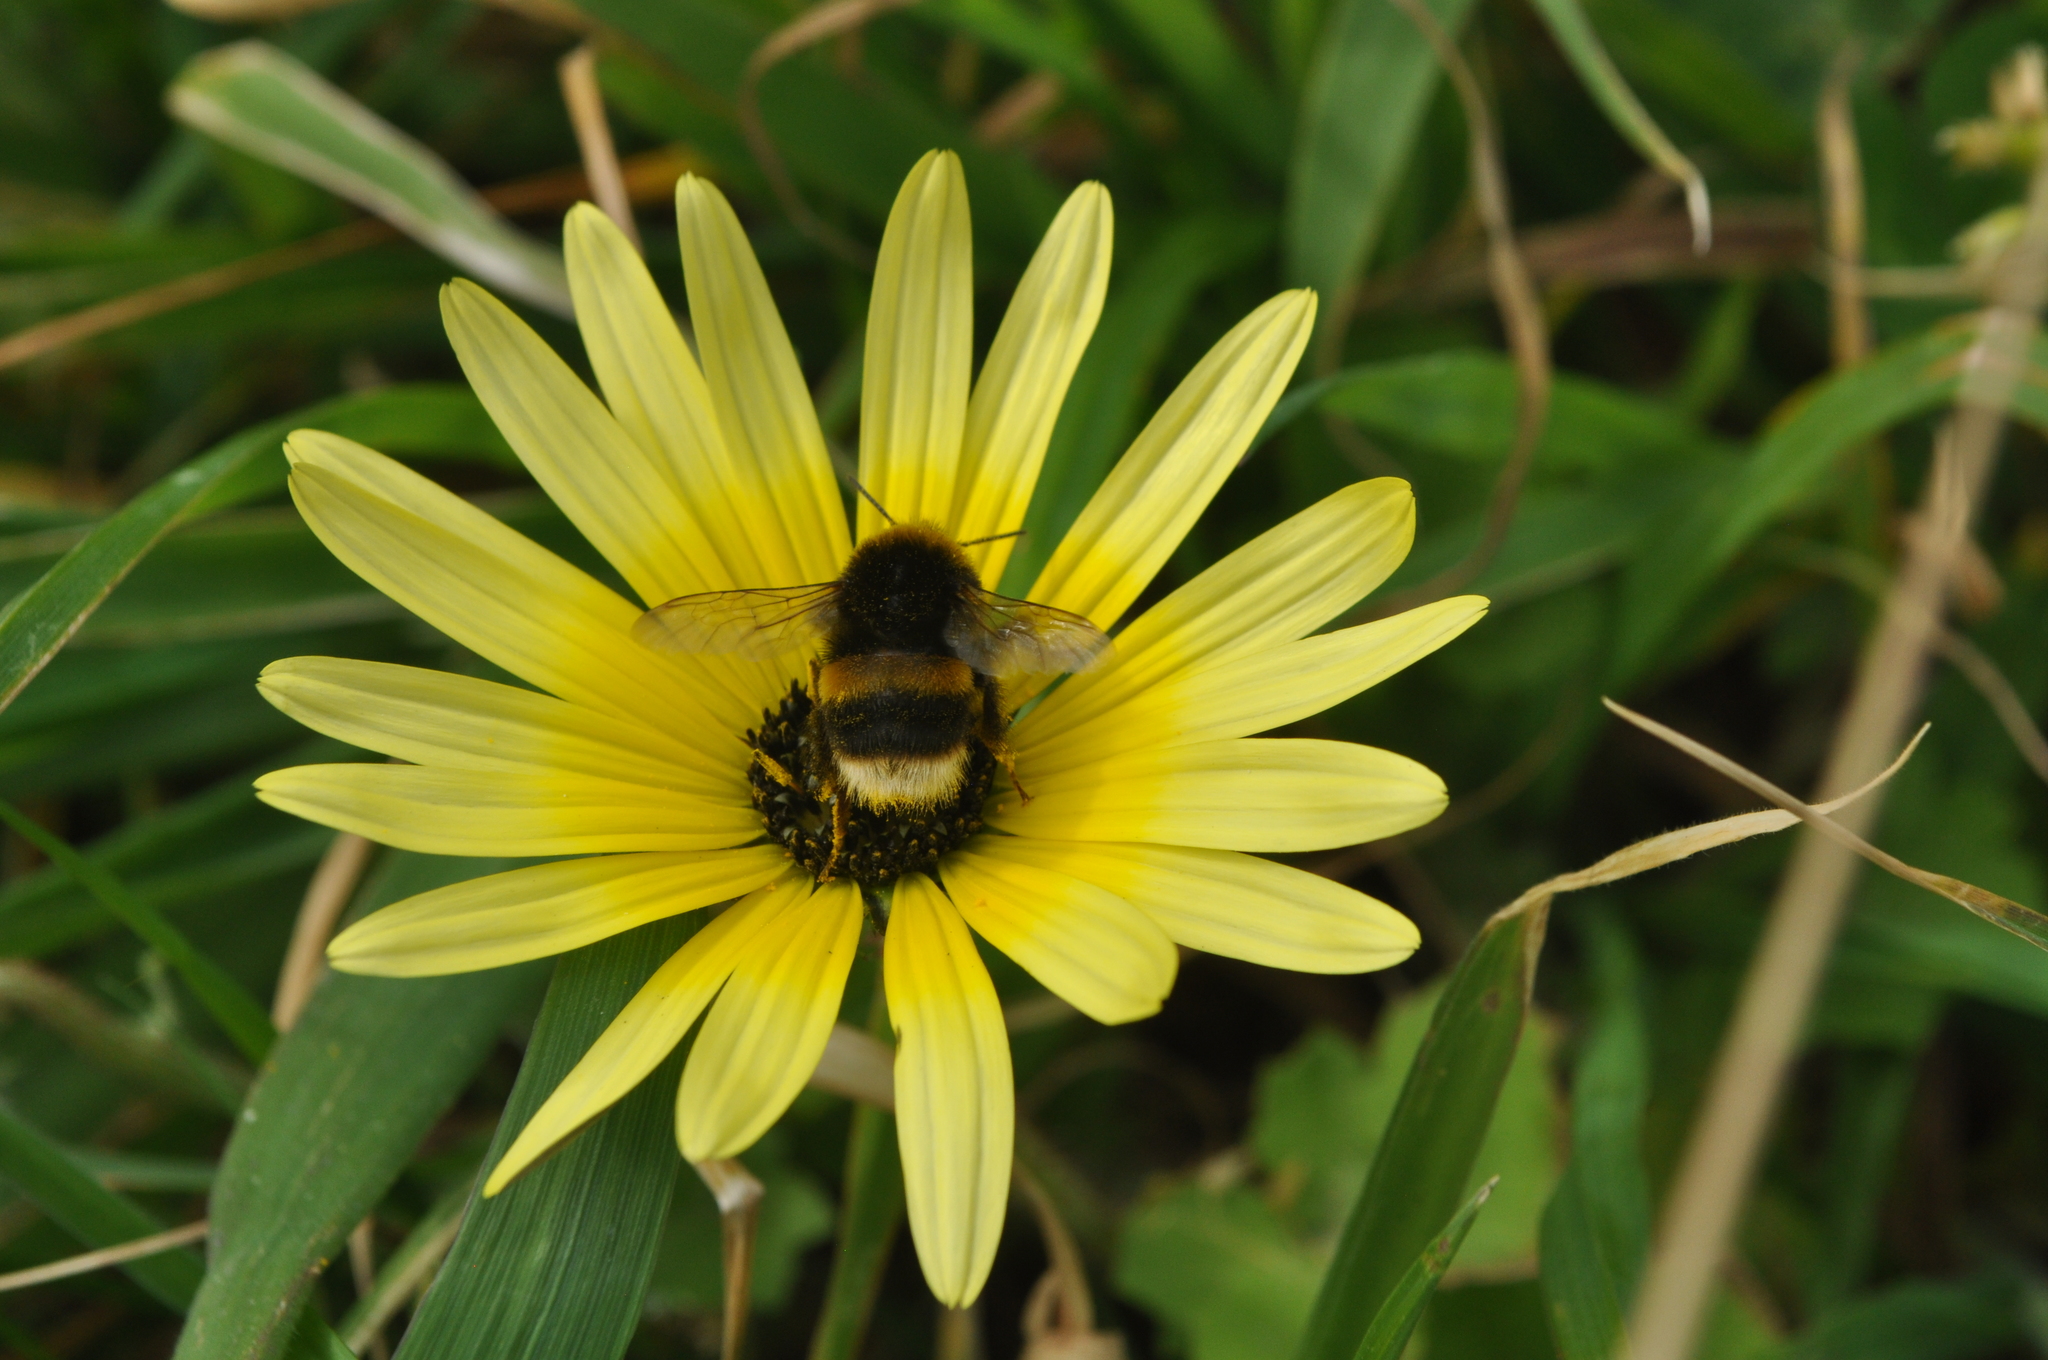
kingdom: Animalia
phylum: Arthropoda
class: Insecta
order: Hymenoptera
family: Apidae
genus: Bombus
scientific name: Bombus terrestris
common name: Buff-tailed bumblebee
